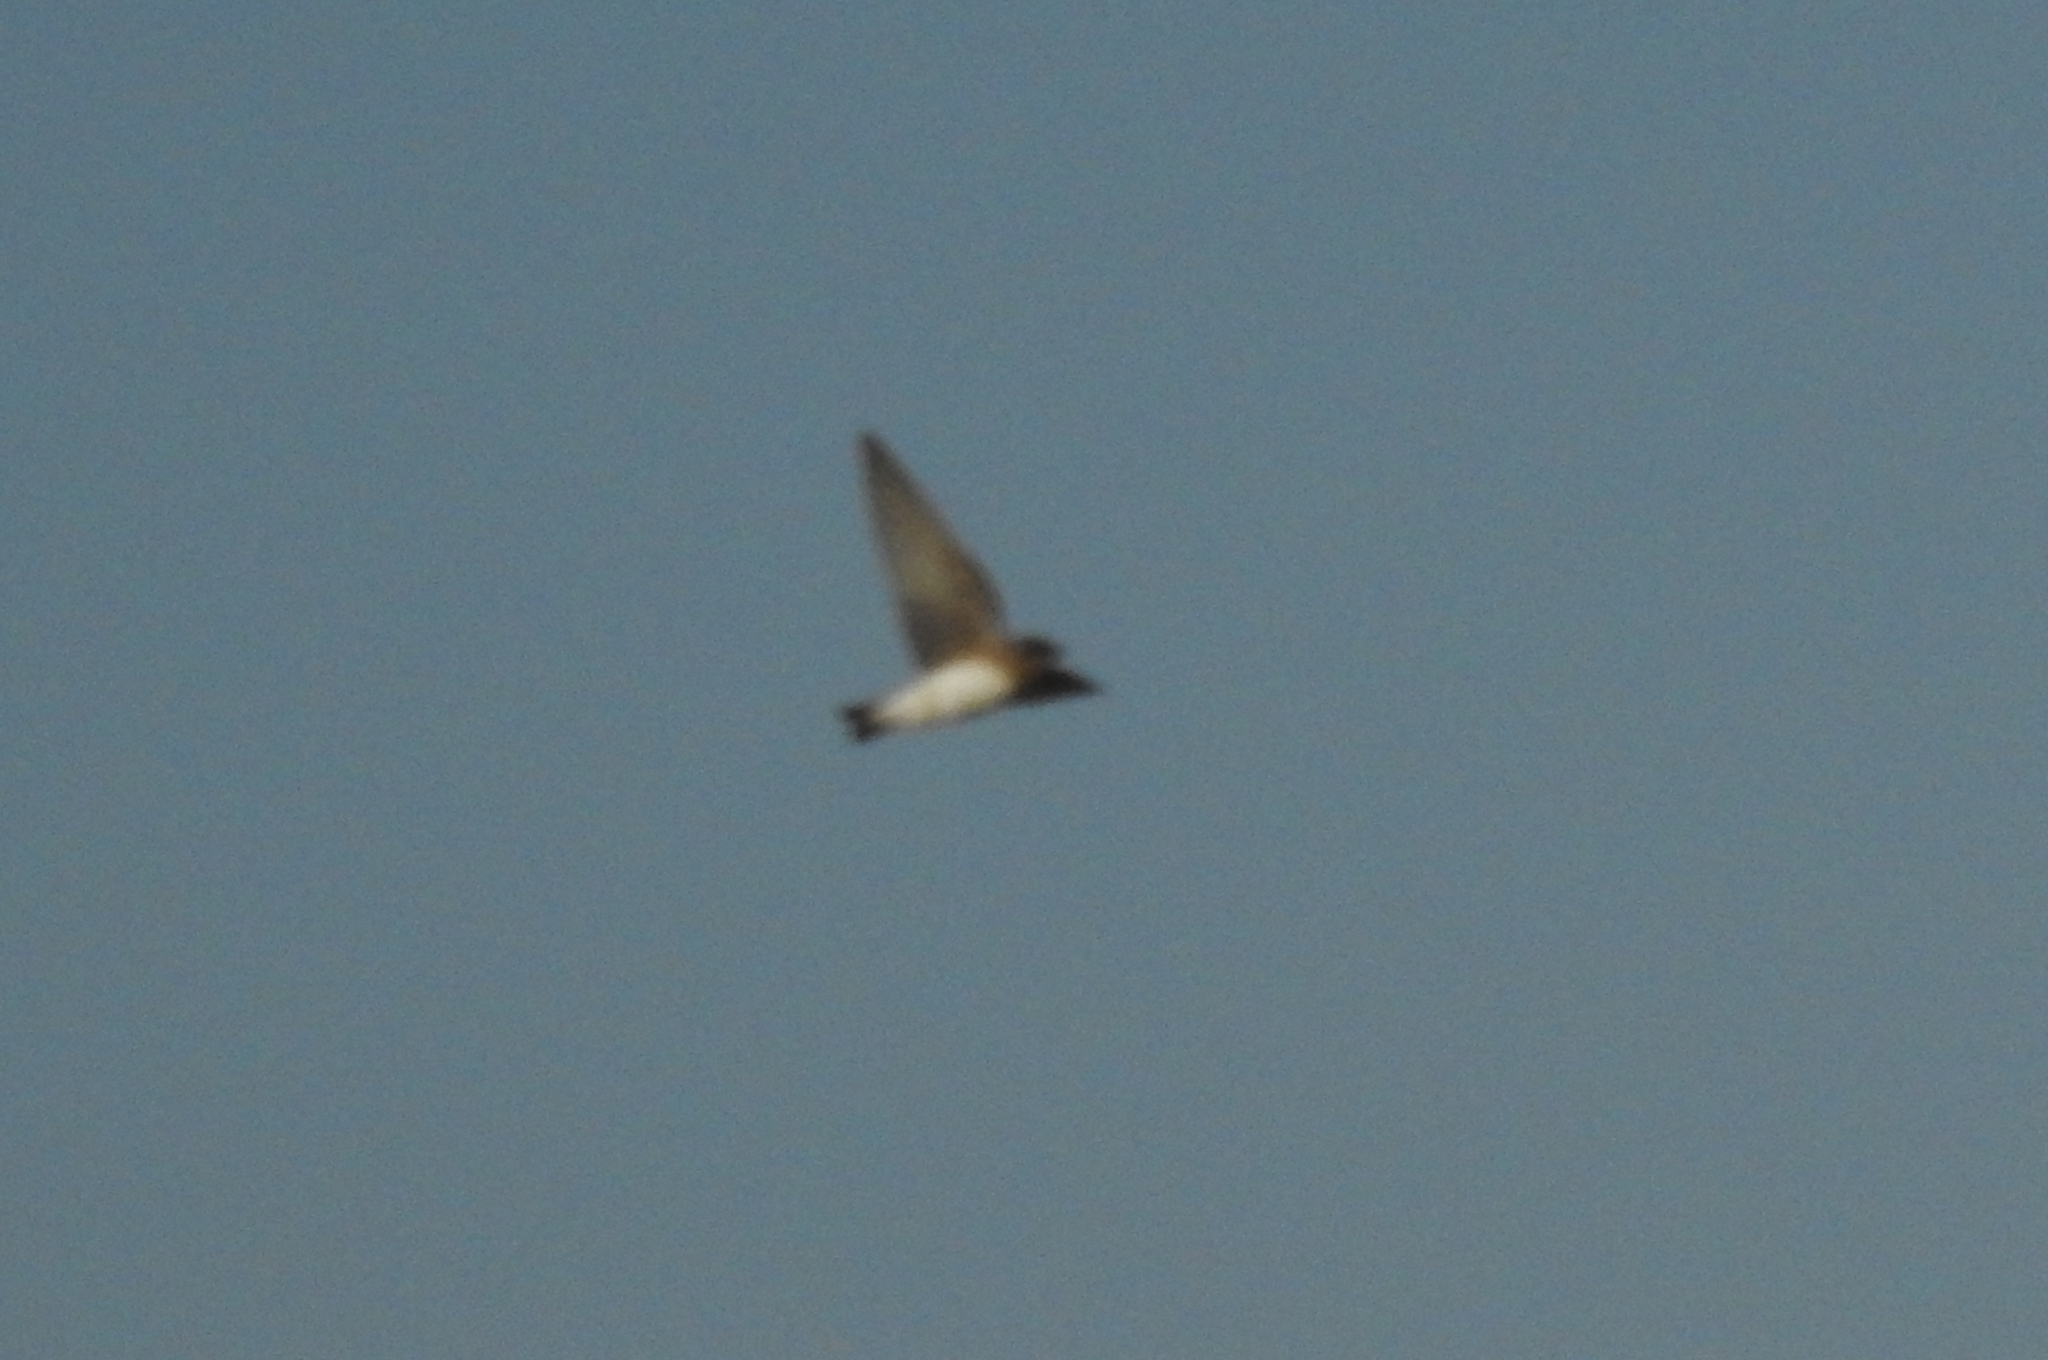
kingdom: Animalia
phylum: Chordata
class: Aves
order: Passeriformes
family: Hirundinidae
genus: Petrochelidon
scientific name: Petrochelidon pyrrhonota
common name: American cliff swallow
